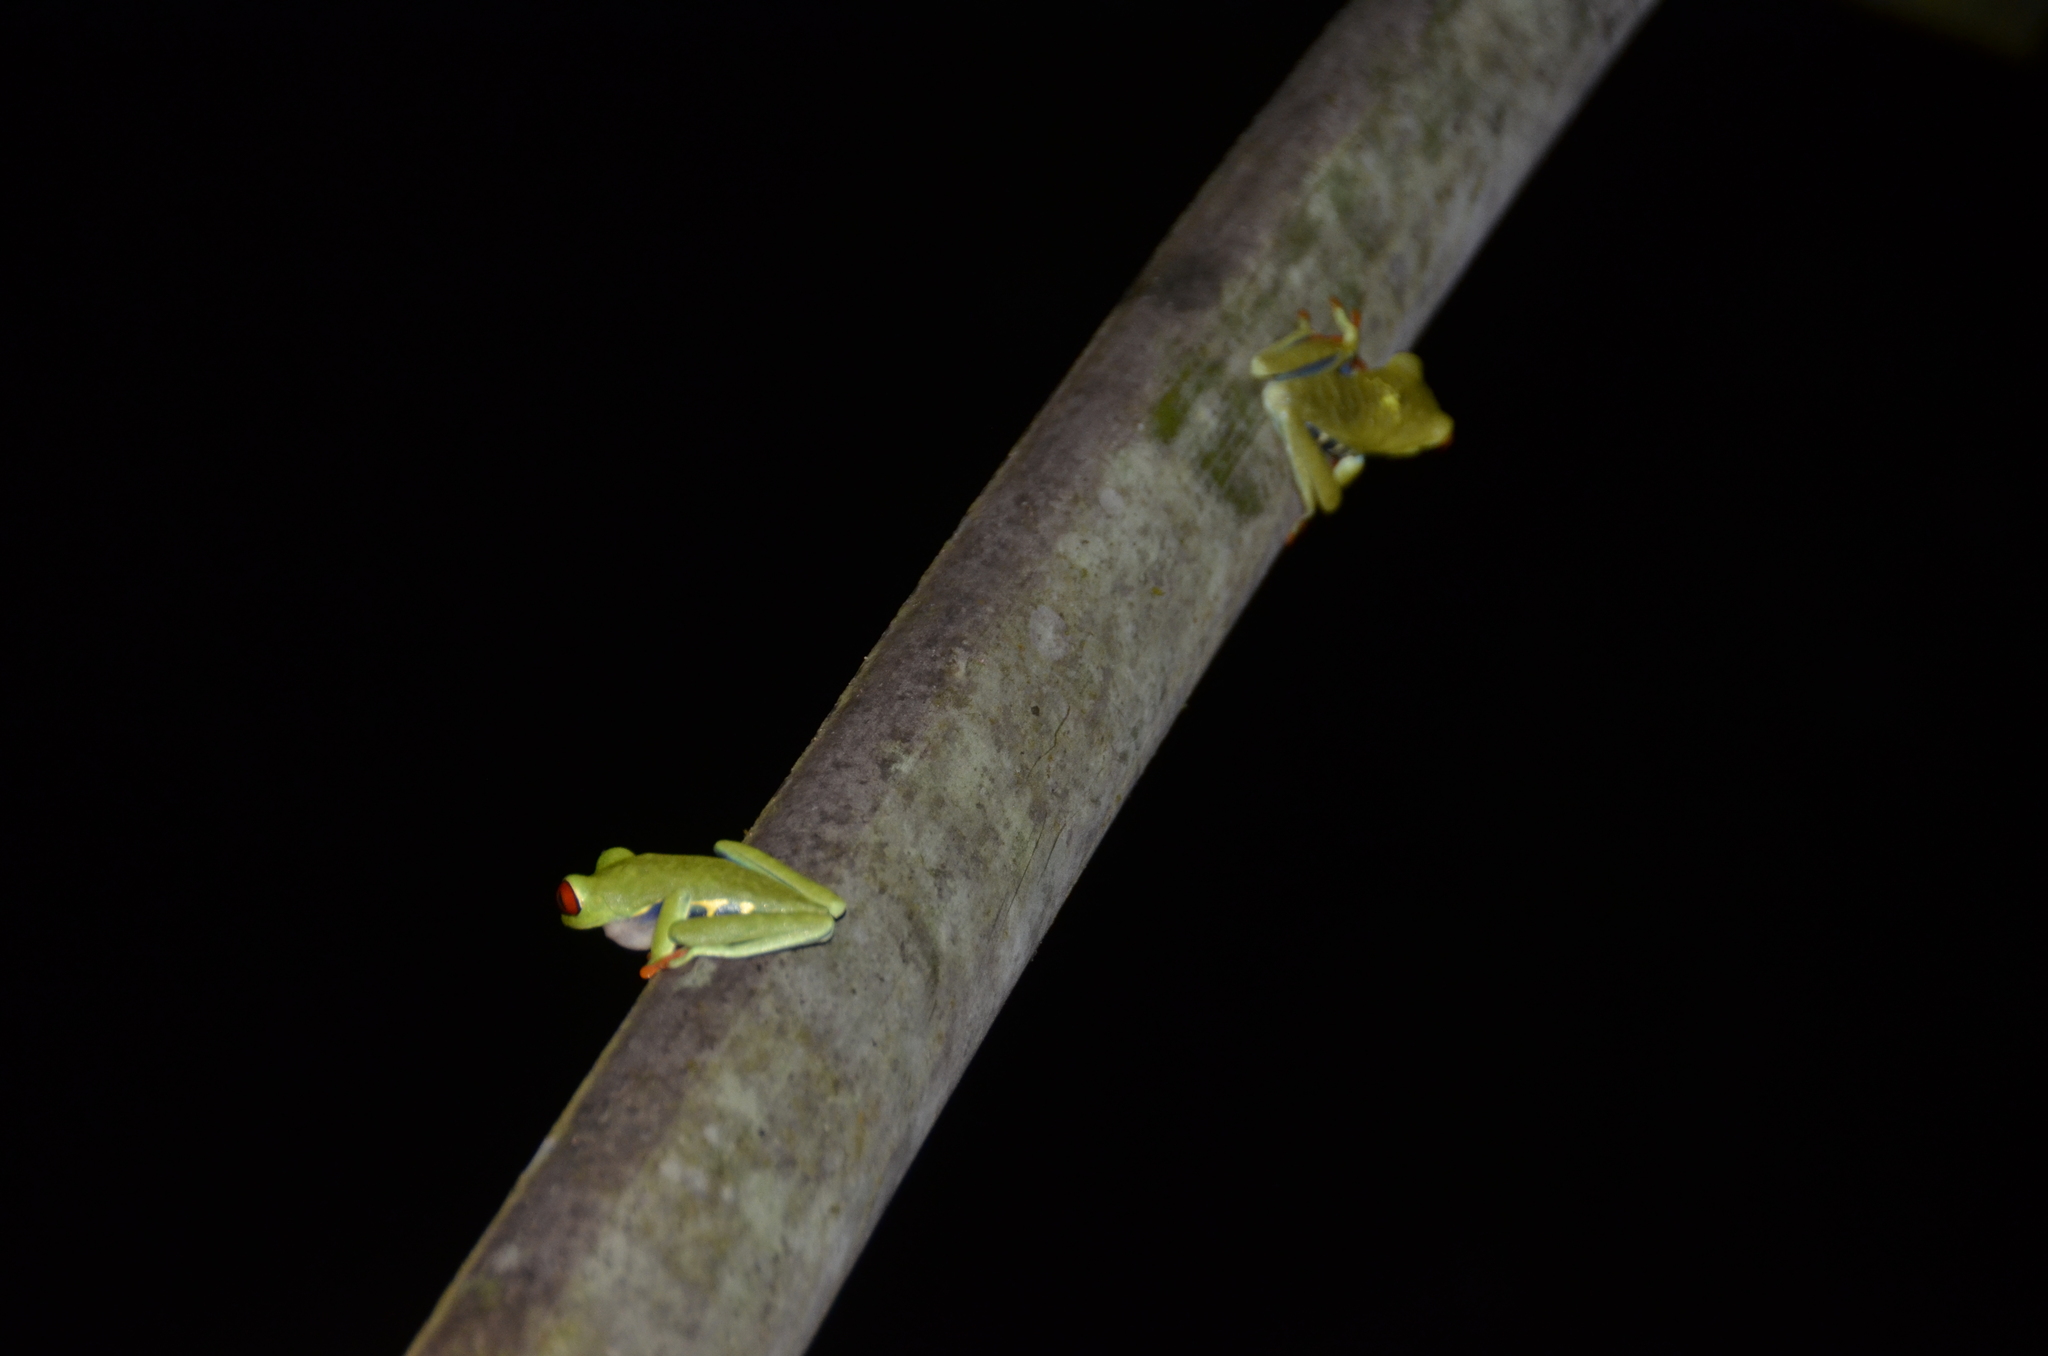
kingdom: Animalia
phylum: Chordata
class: Amphibia
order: Anura
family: Phyllomedusidae
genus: Agalychnis
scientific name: Agalychnis callidryas
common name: Red-eyed treefrog
